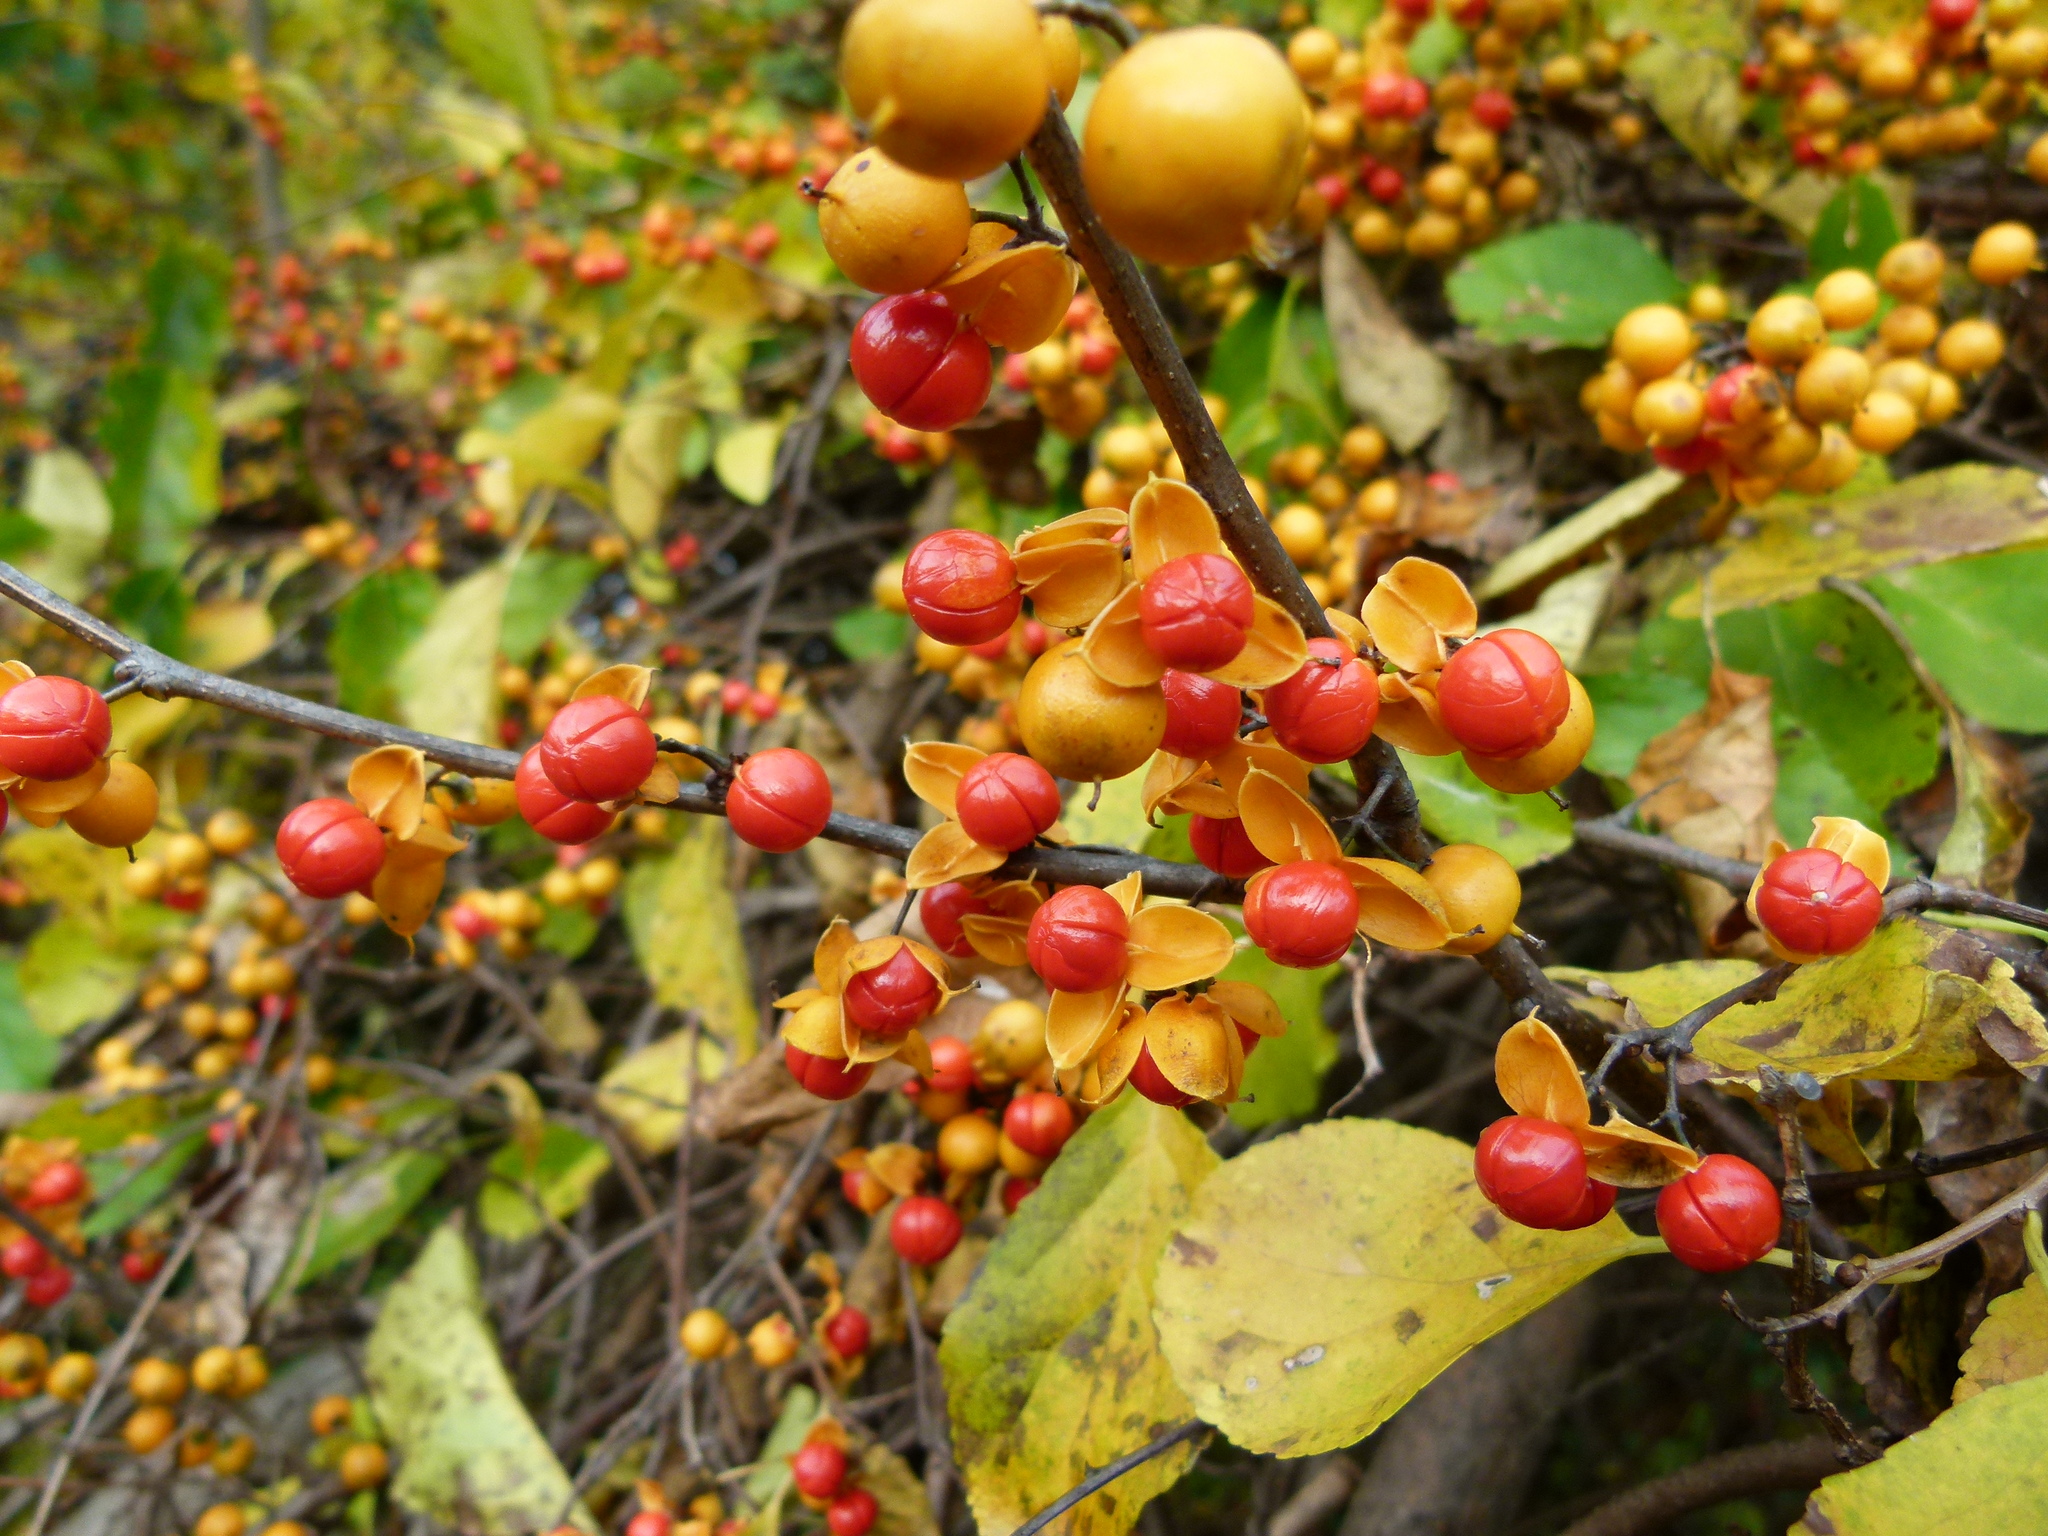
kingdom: Plantae
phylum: Tracheophyta
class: Magnoliopsida
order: Celastrales
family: Celastraceae
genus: Celastrus
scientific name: Celastrus orbiculatus
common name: Oriental bittersweet
